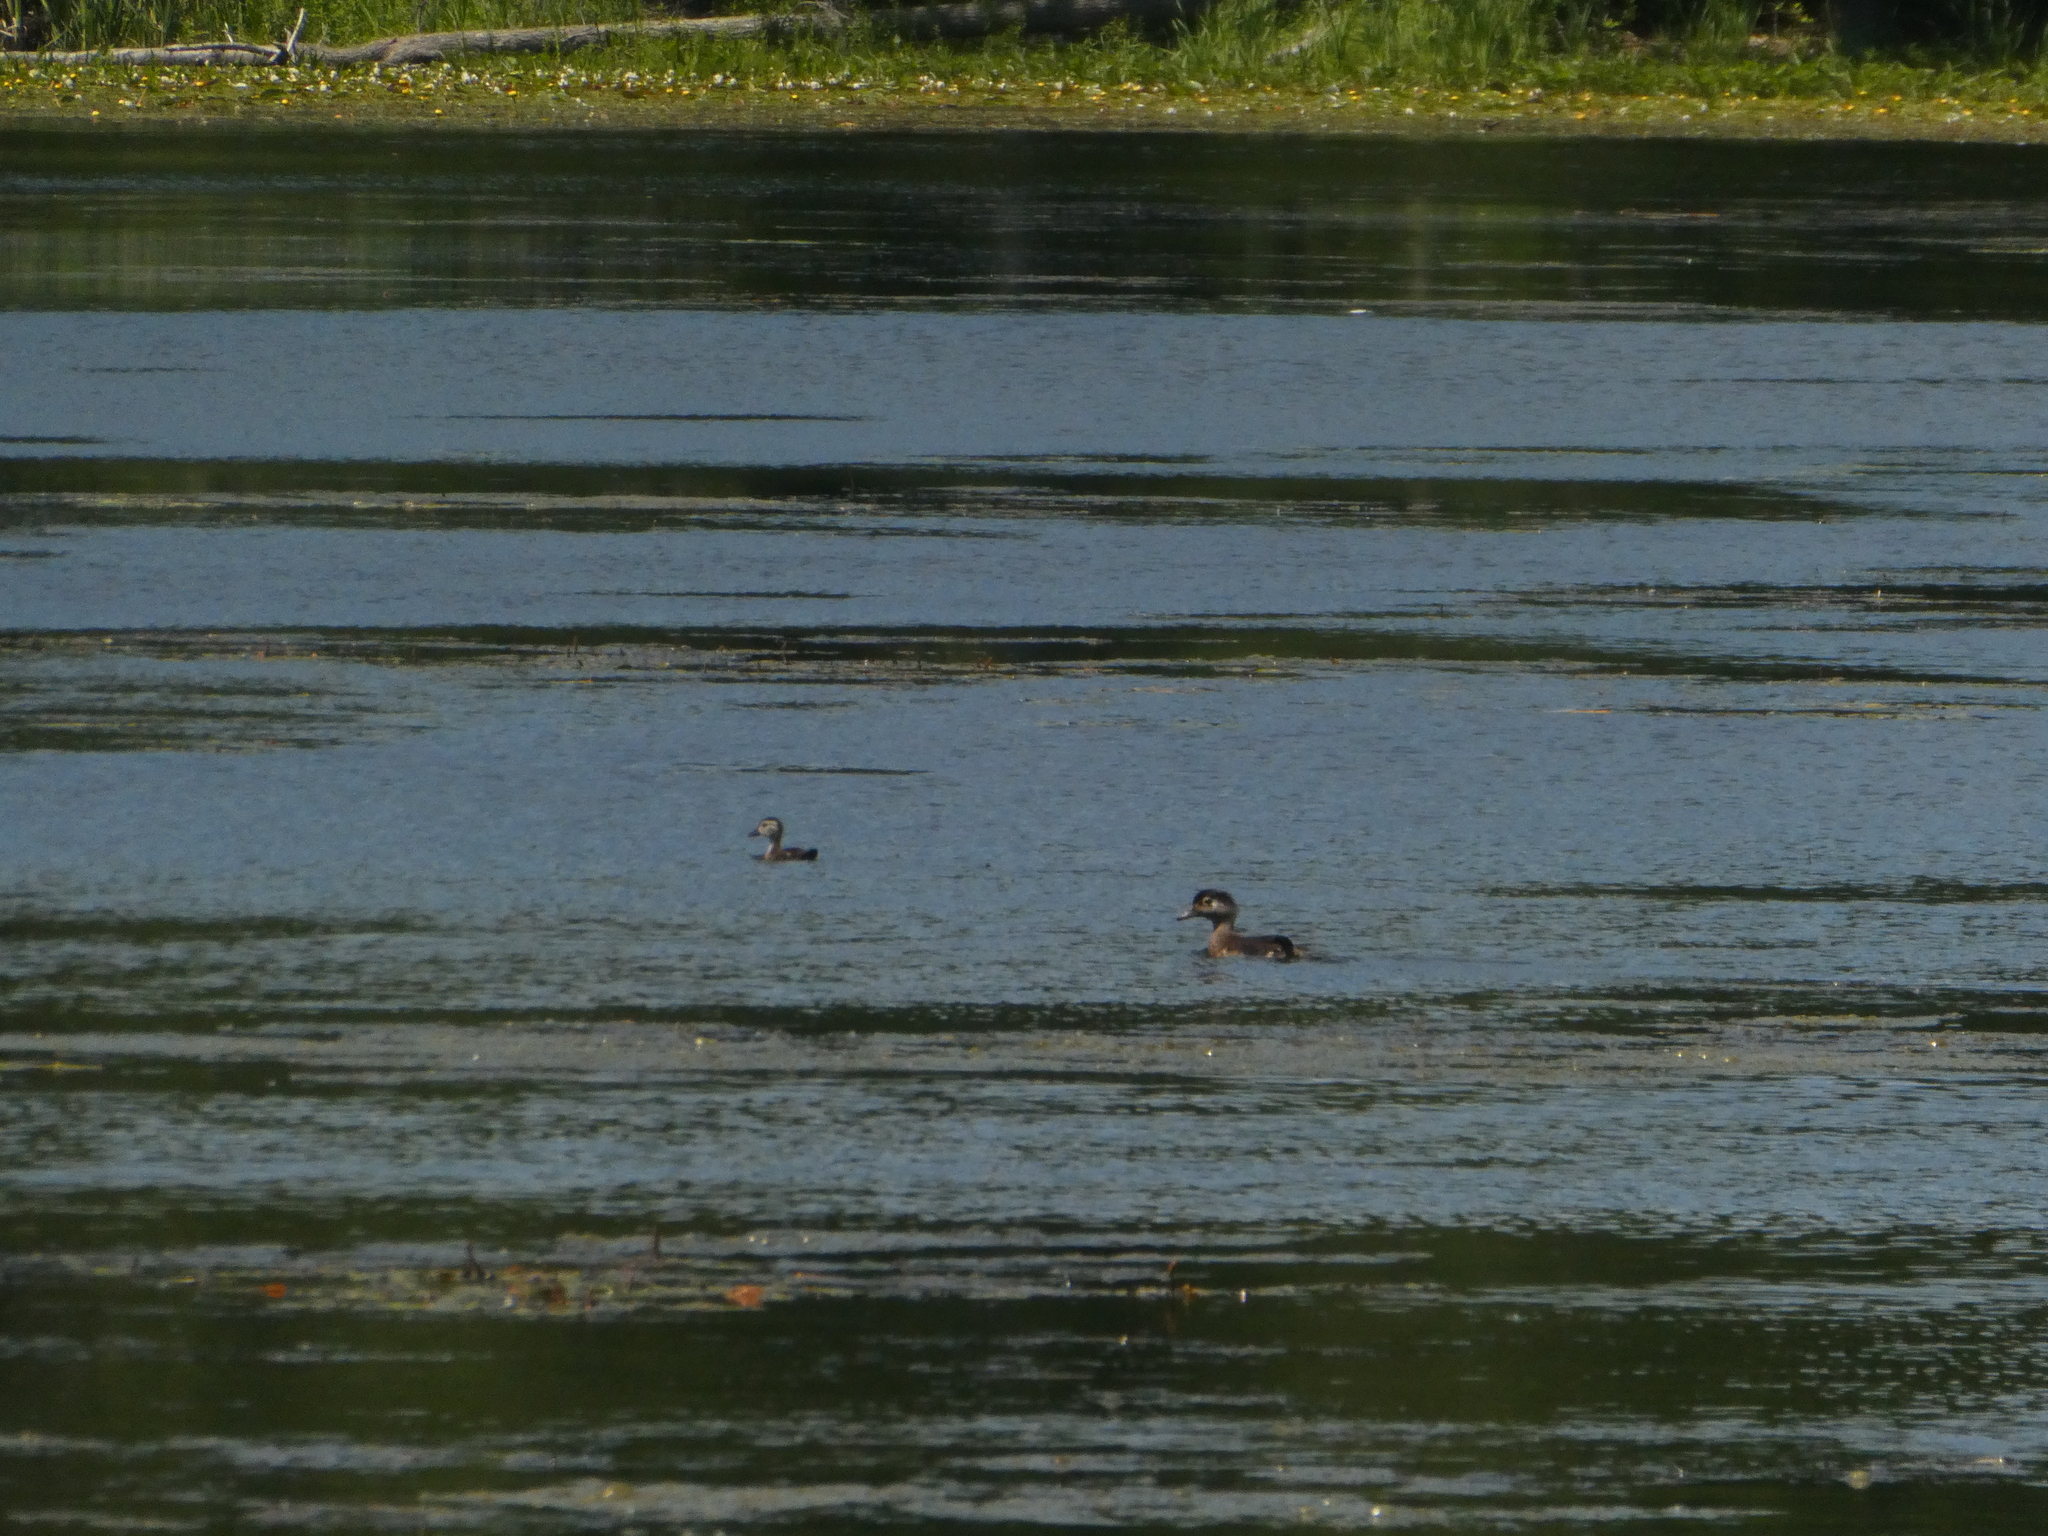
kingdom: Animalia
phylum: Chordata
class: Aves
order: Anseriformes
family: Anatidae
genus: Aix
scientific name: Aix sponsa
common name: Wood duck
